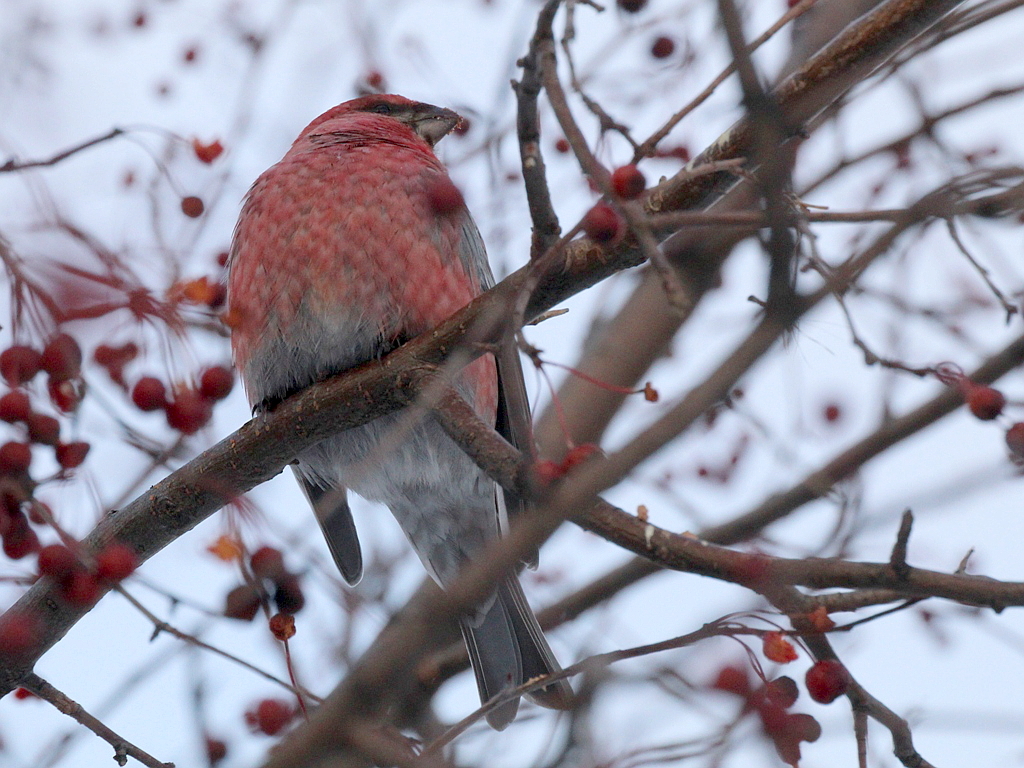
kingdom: Animalia
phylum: Chordata
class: Aves
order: Passeriformes
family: Fringillidae
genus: Pinicola
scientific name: Pinicola enucleator
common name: Pine grosbeak
